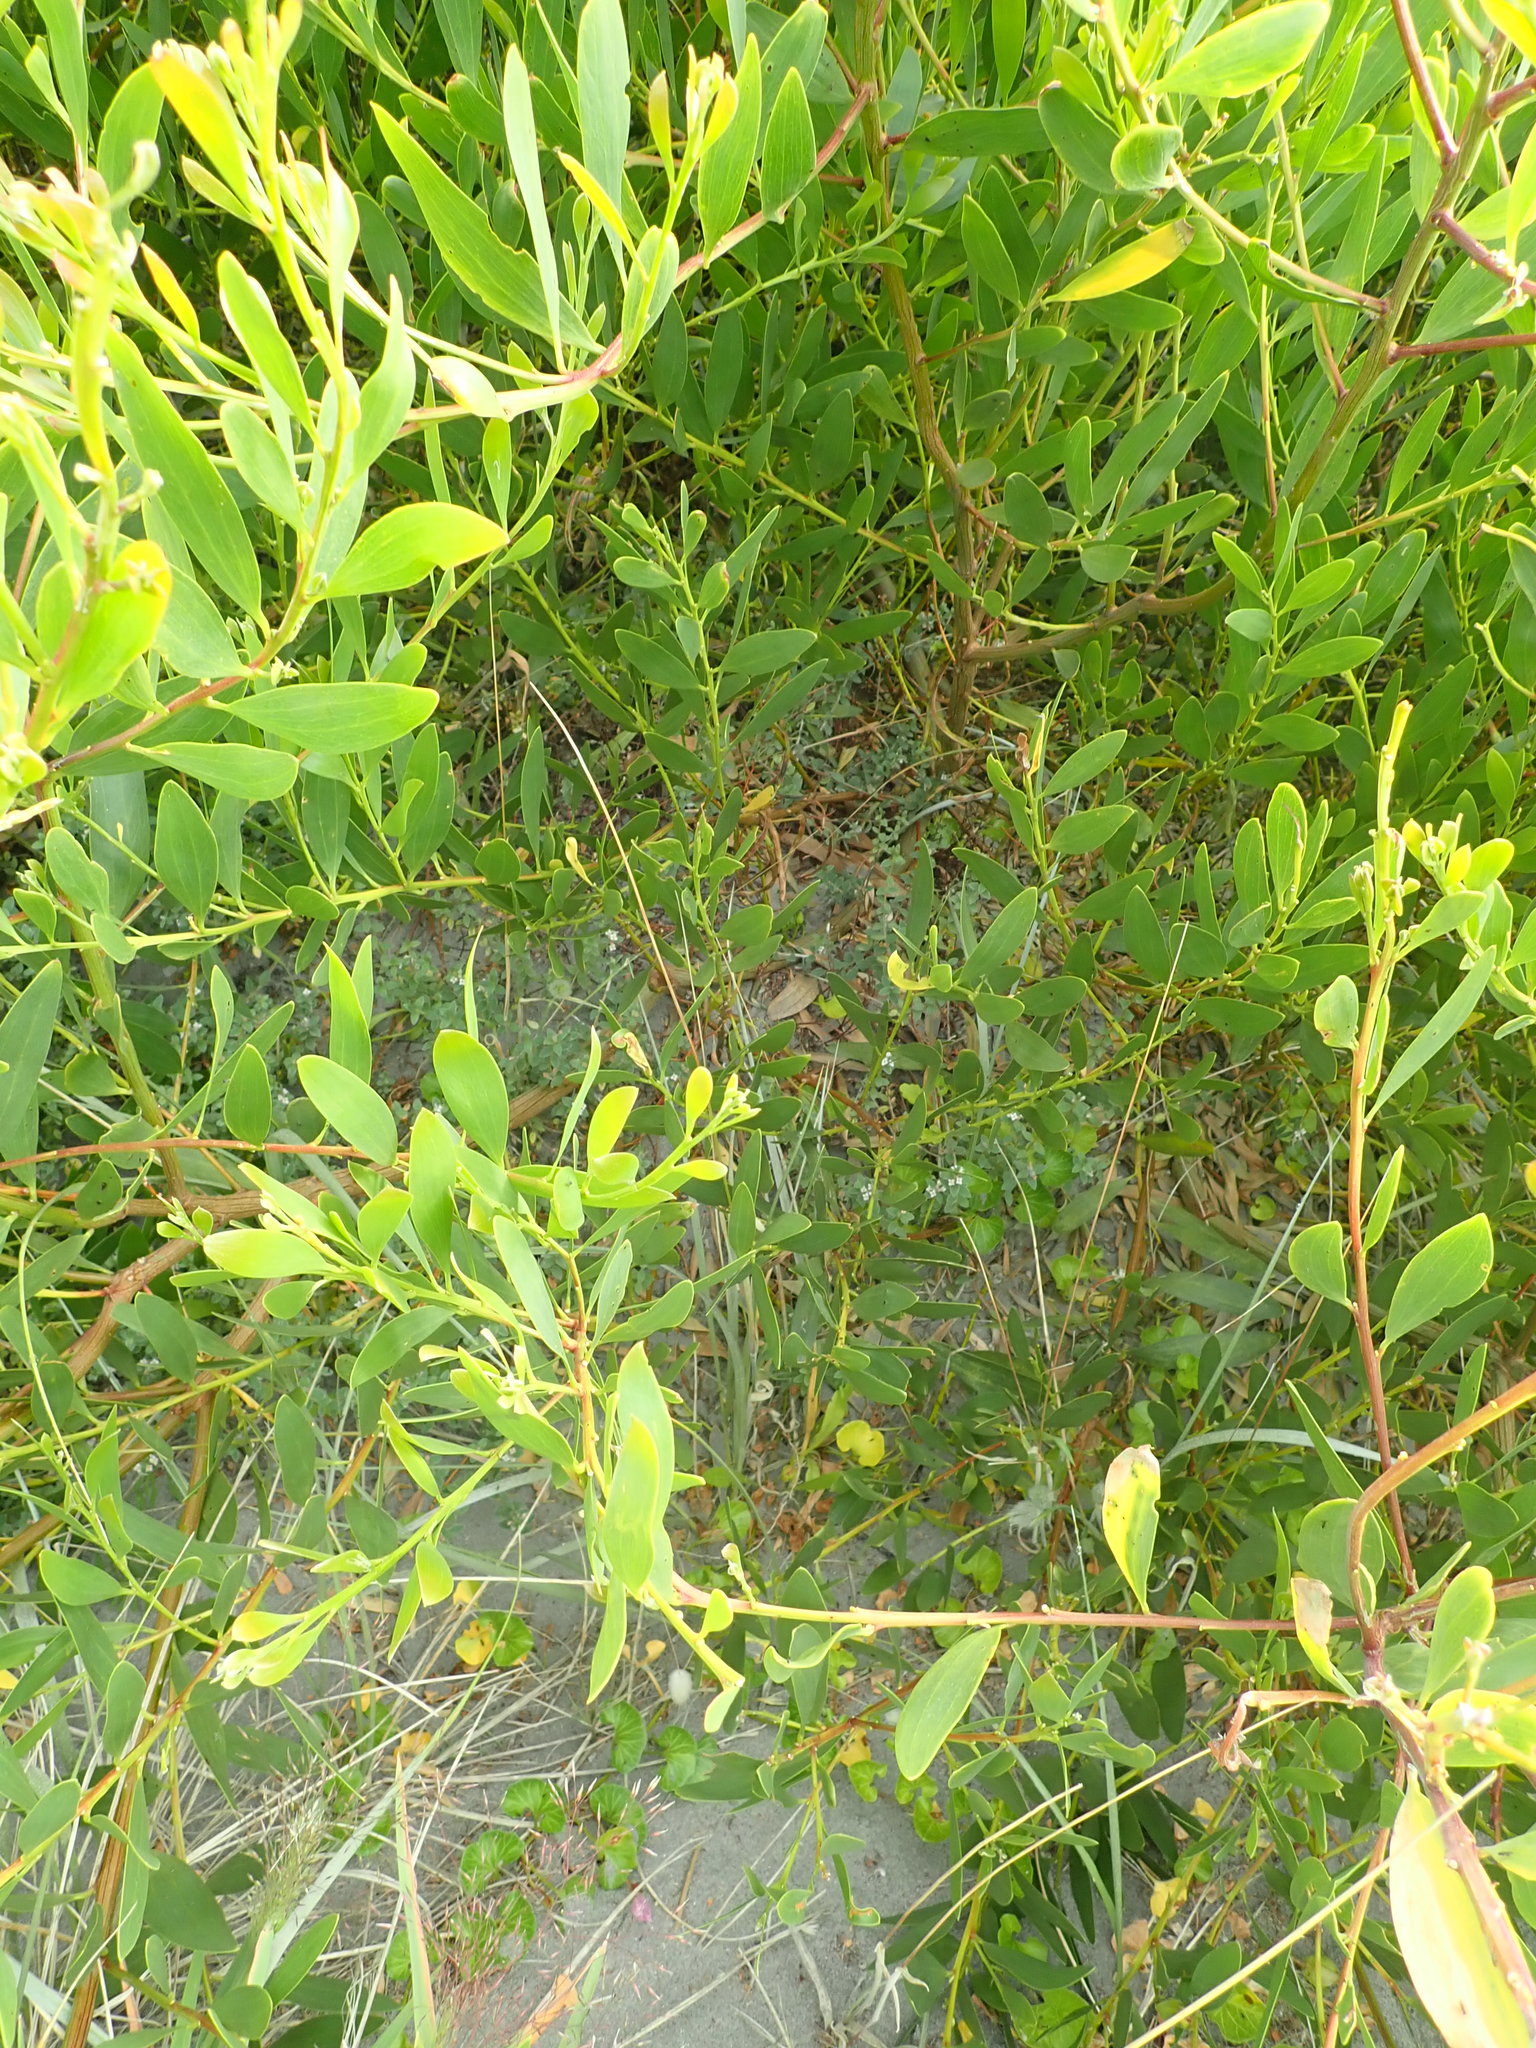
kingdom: Plantae
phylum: Tracheophyta
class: Magnoliopsida
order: Fabales
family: Fabaceae
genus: Acacia
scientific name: Acacia longifolia
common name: Sydney golden wattle
